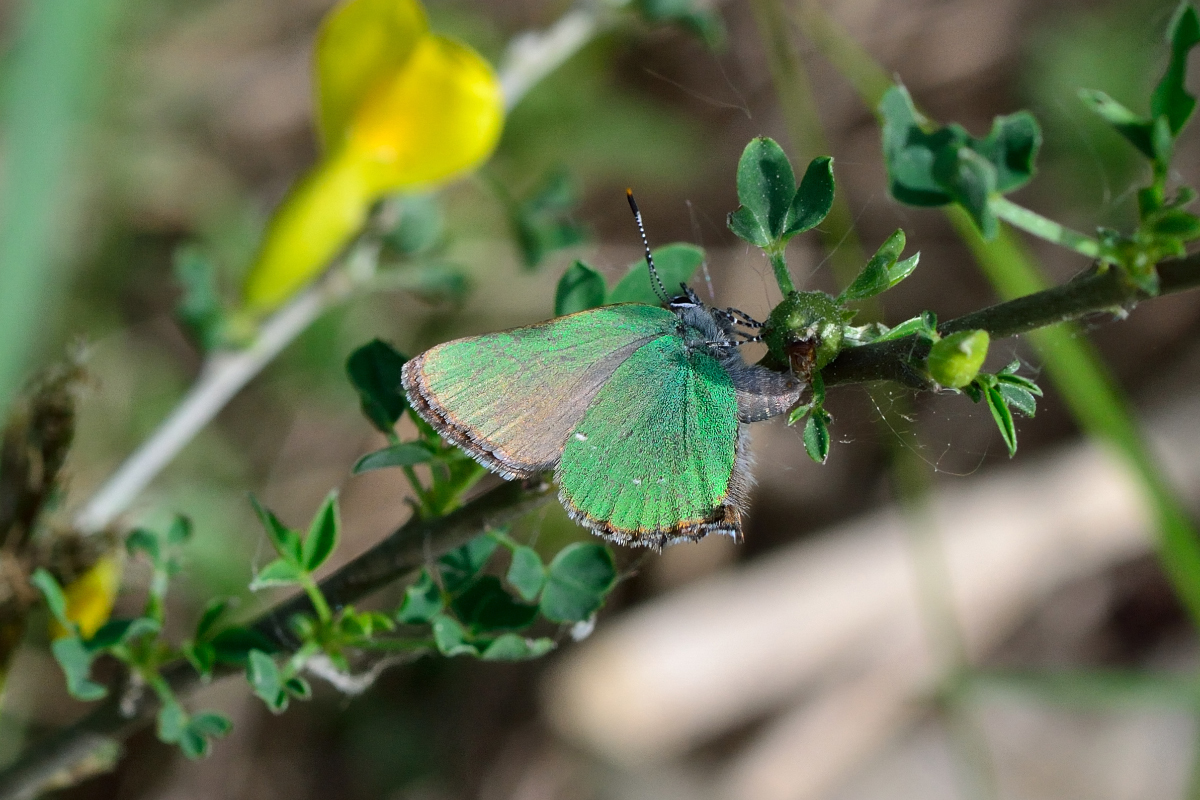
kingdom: Animalia
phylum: Arthropoda
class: Insecta
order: Lepidoptera
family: Lycaenidae
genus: Callophrys
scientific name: Callophrys rubi
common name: Green hairstreak
